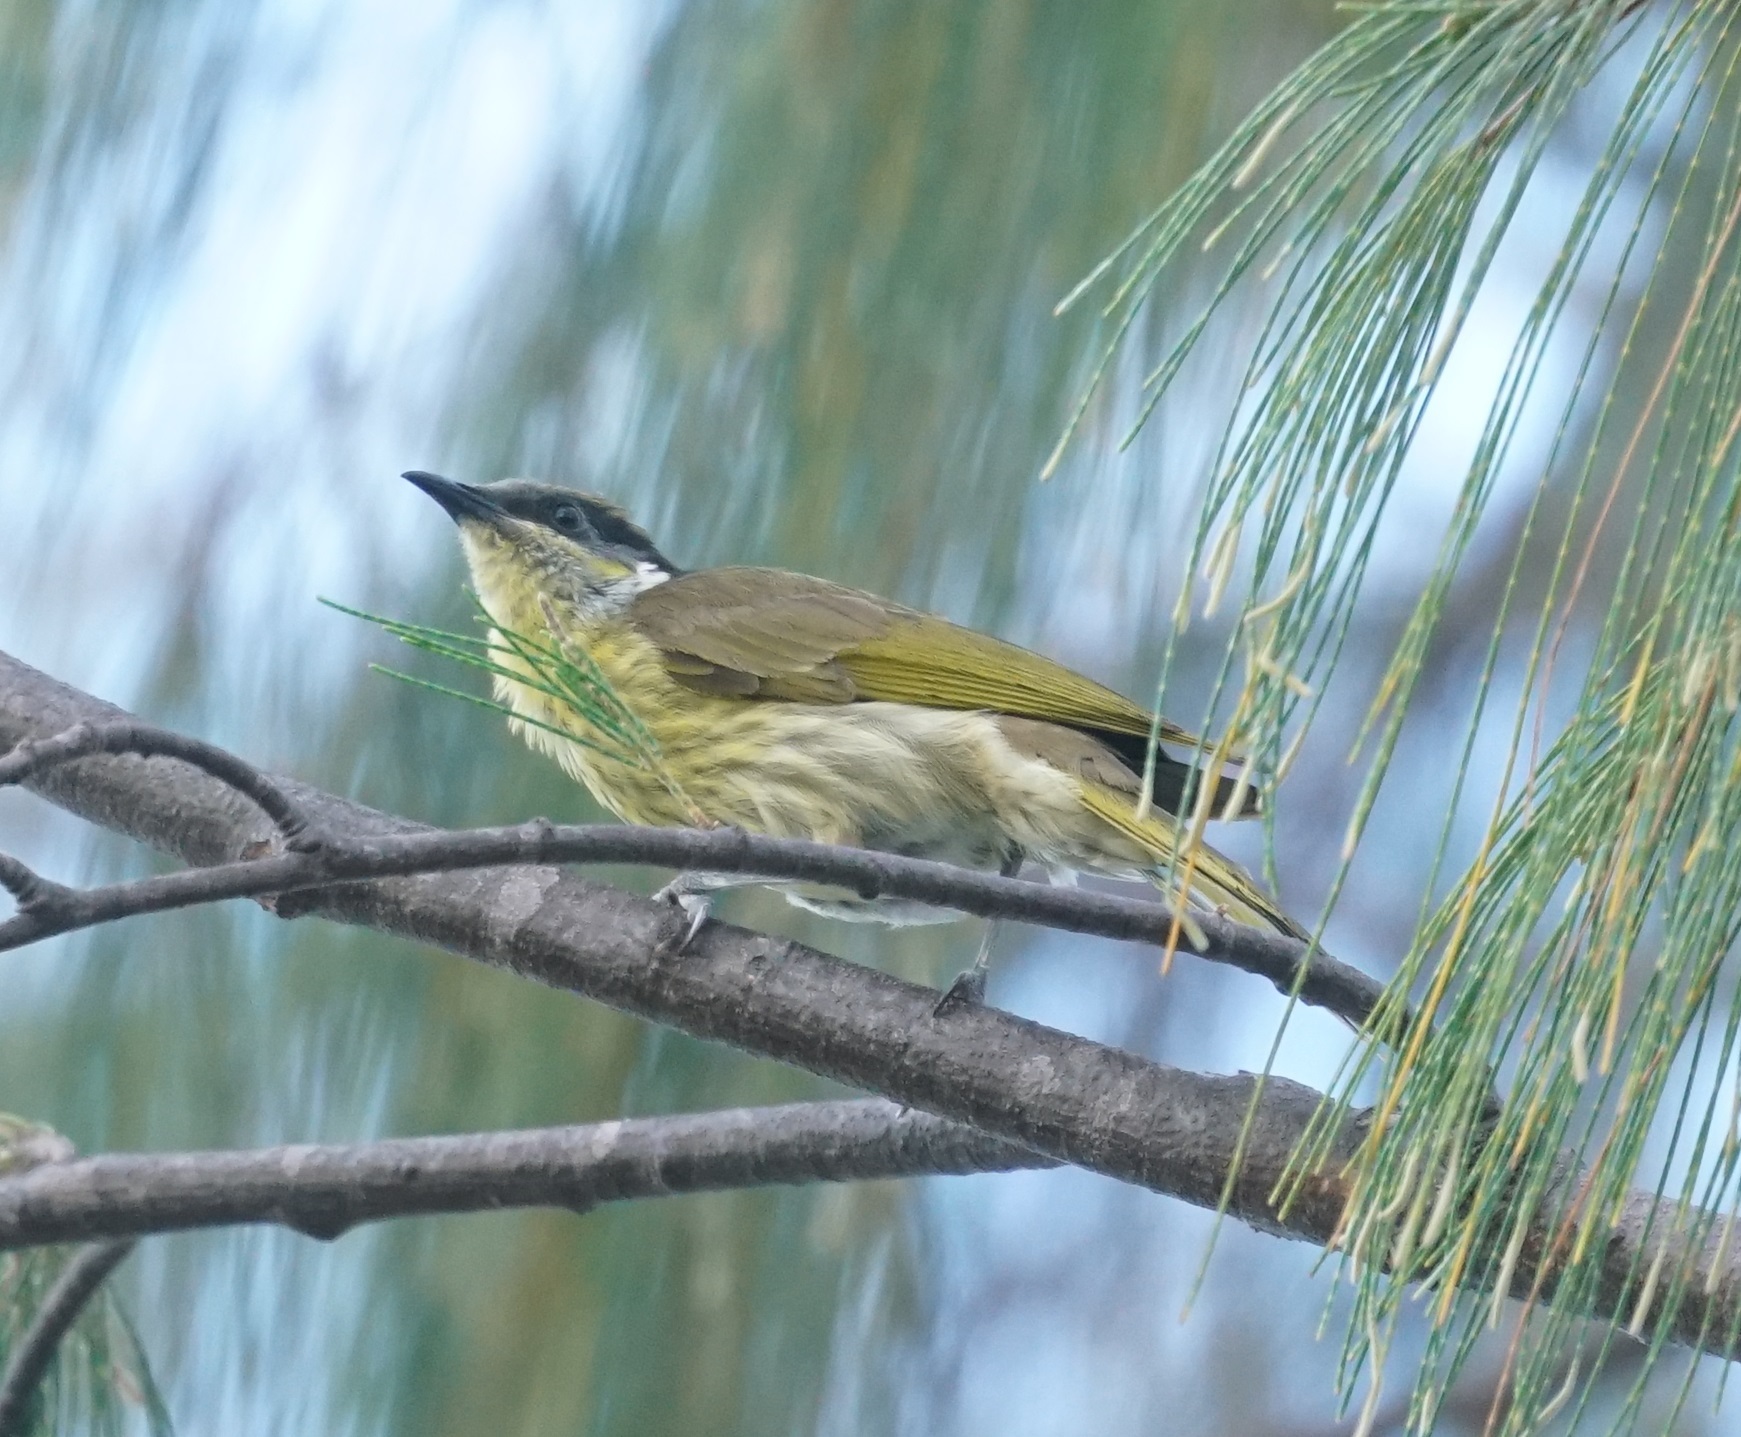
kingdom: Animalia
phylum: Chordata
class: Aves
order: Passeriformes
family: Meliphagidae
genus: Gavicalis
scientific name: Gavicalis versicolor
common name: Varied honeyeater
